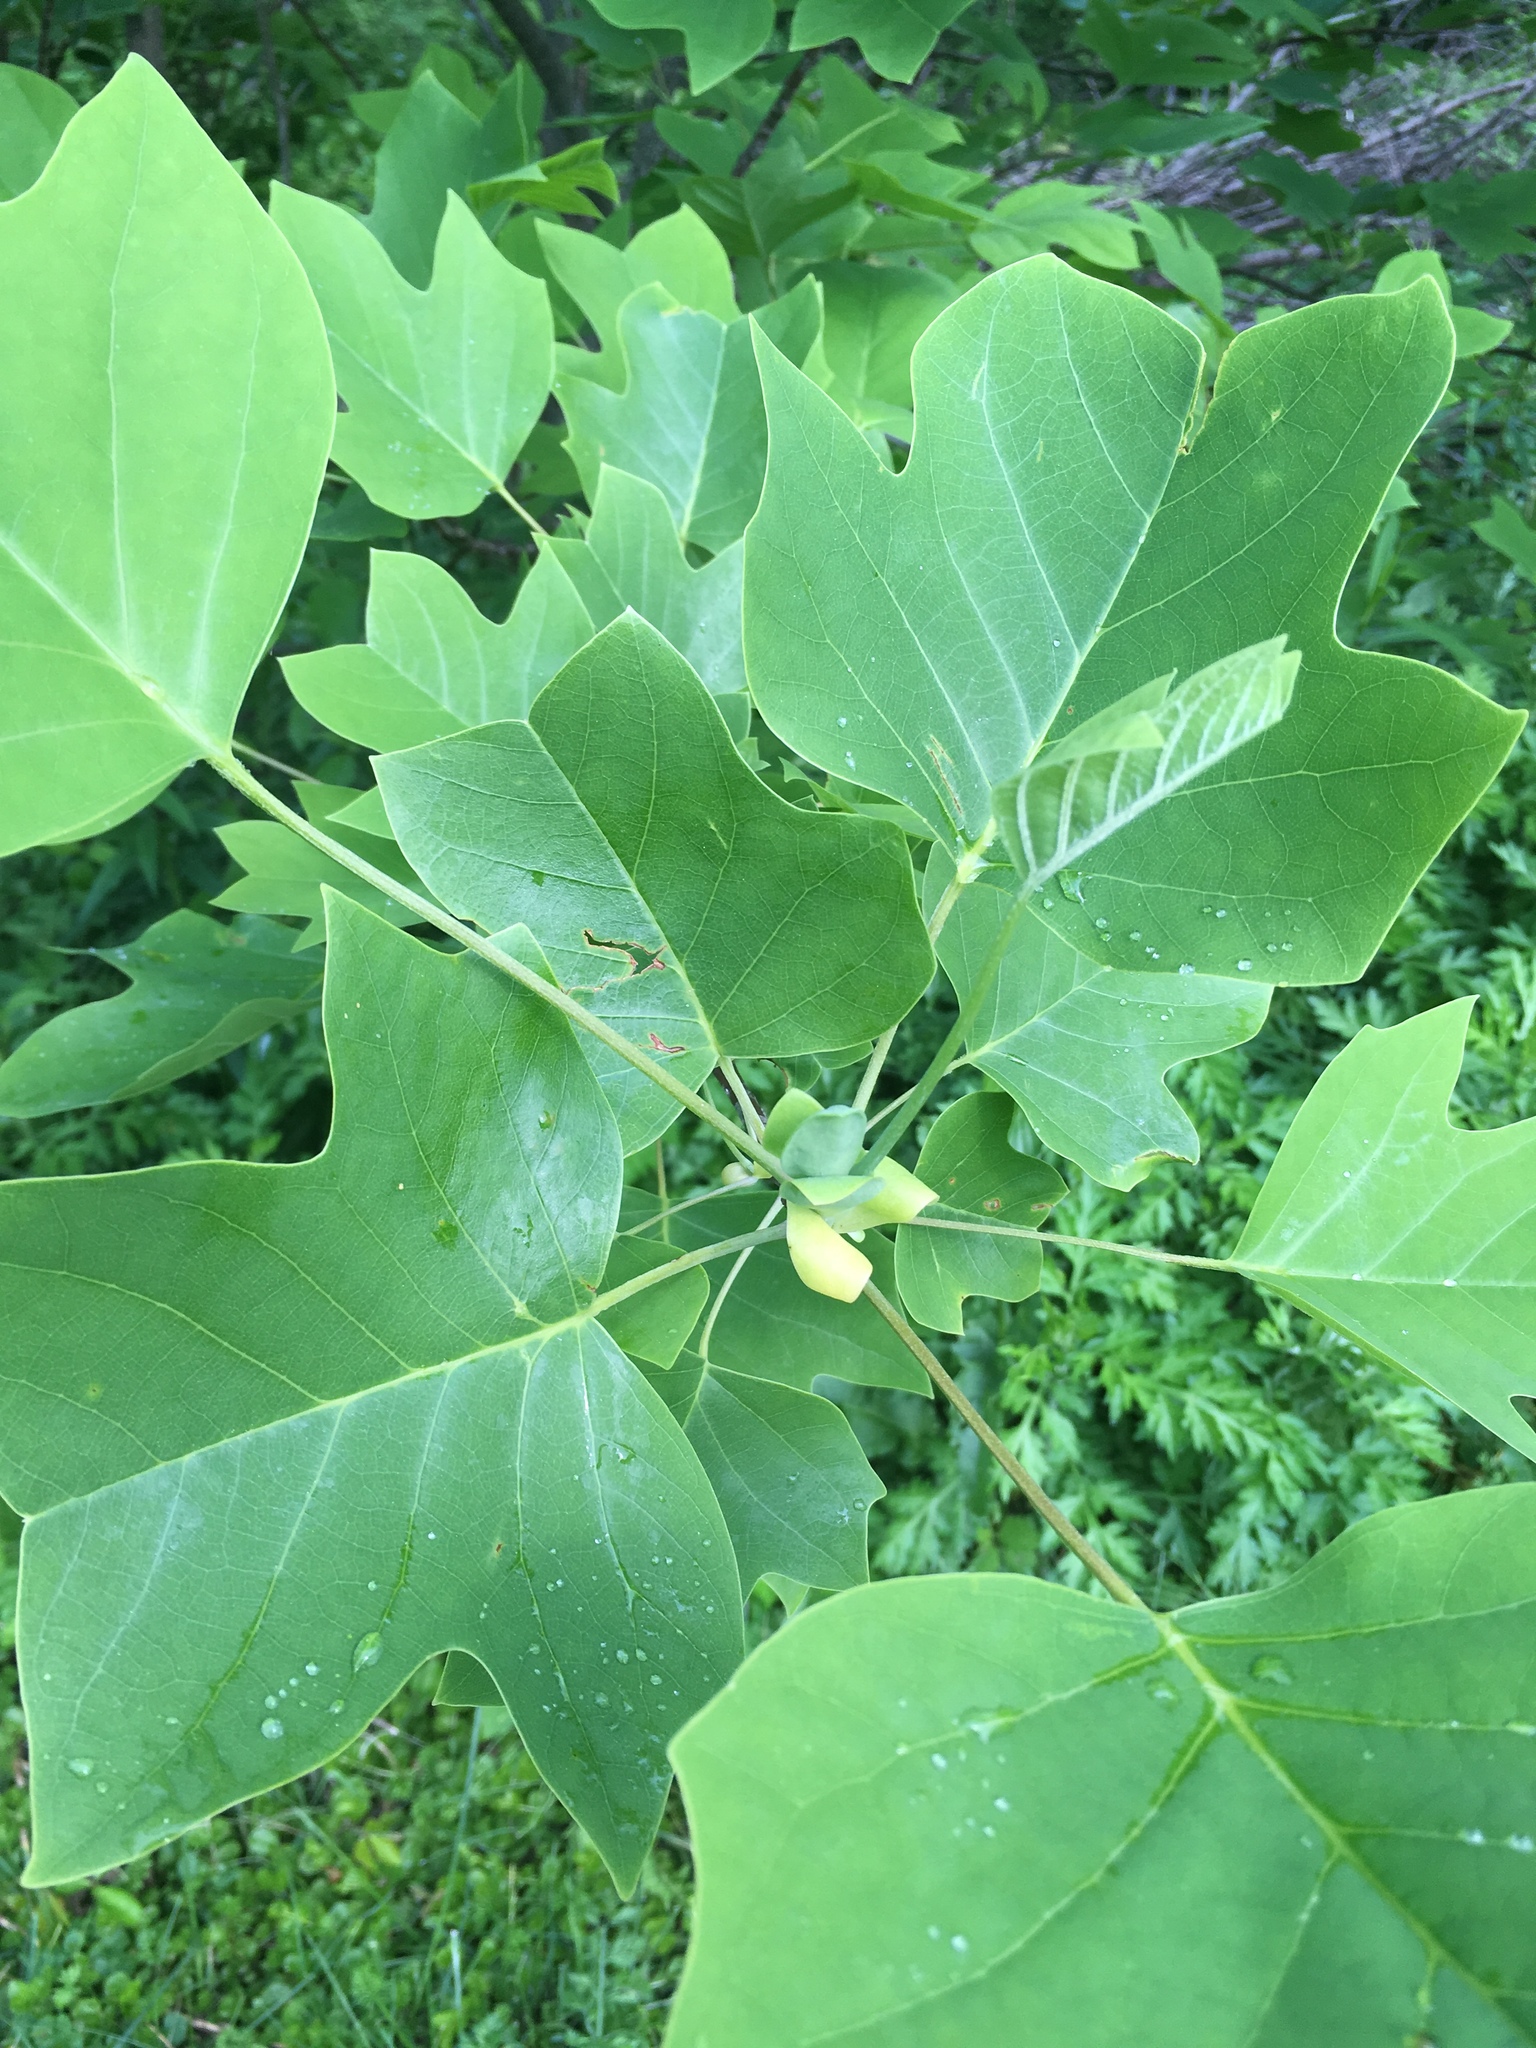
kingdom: Plantae
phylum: Tracheophyta
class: Magnoliopsida
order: Magnoliales
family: Magnoliaceae
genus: Liriodendron
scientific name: Liriodendron tulipifera
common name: Tulip tree
